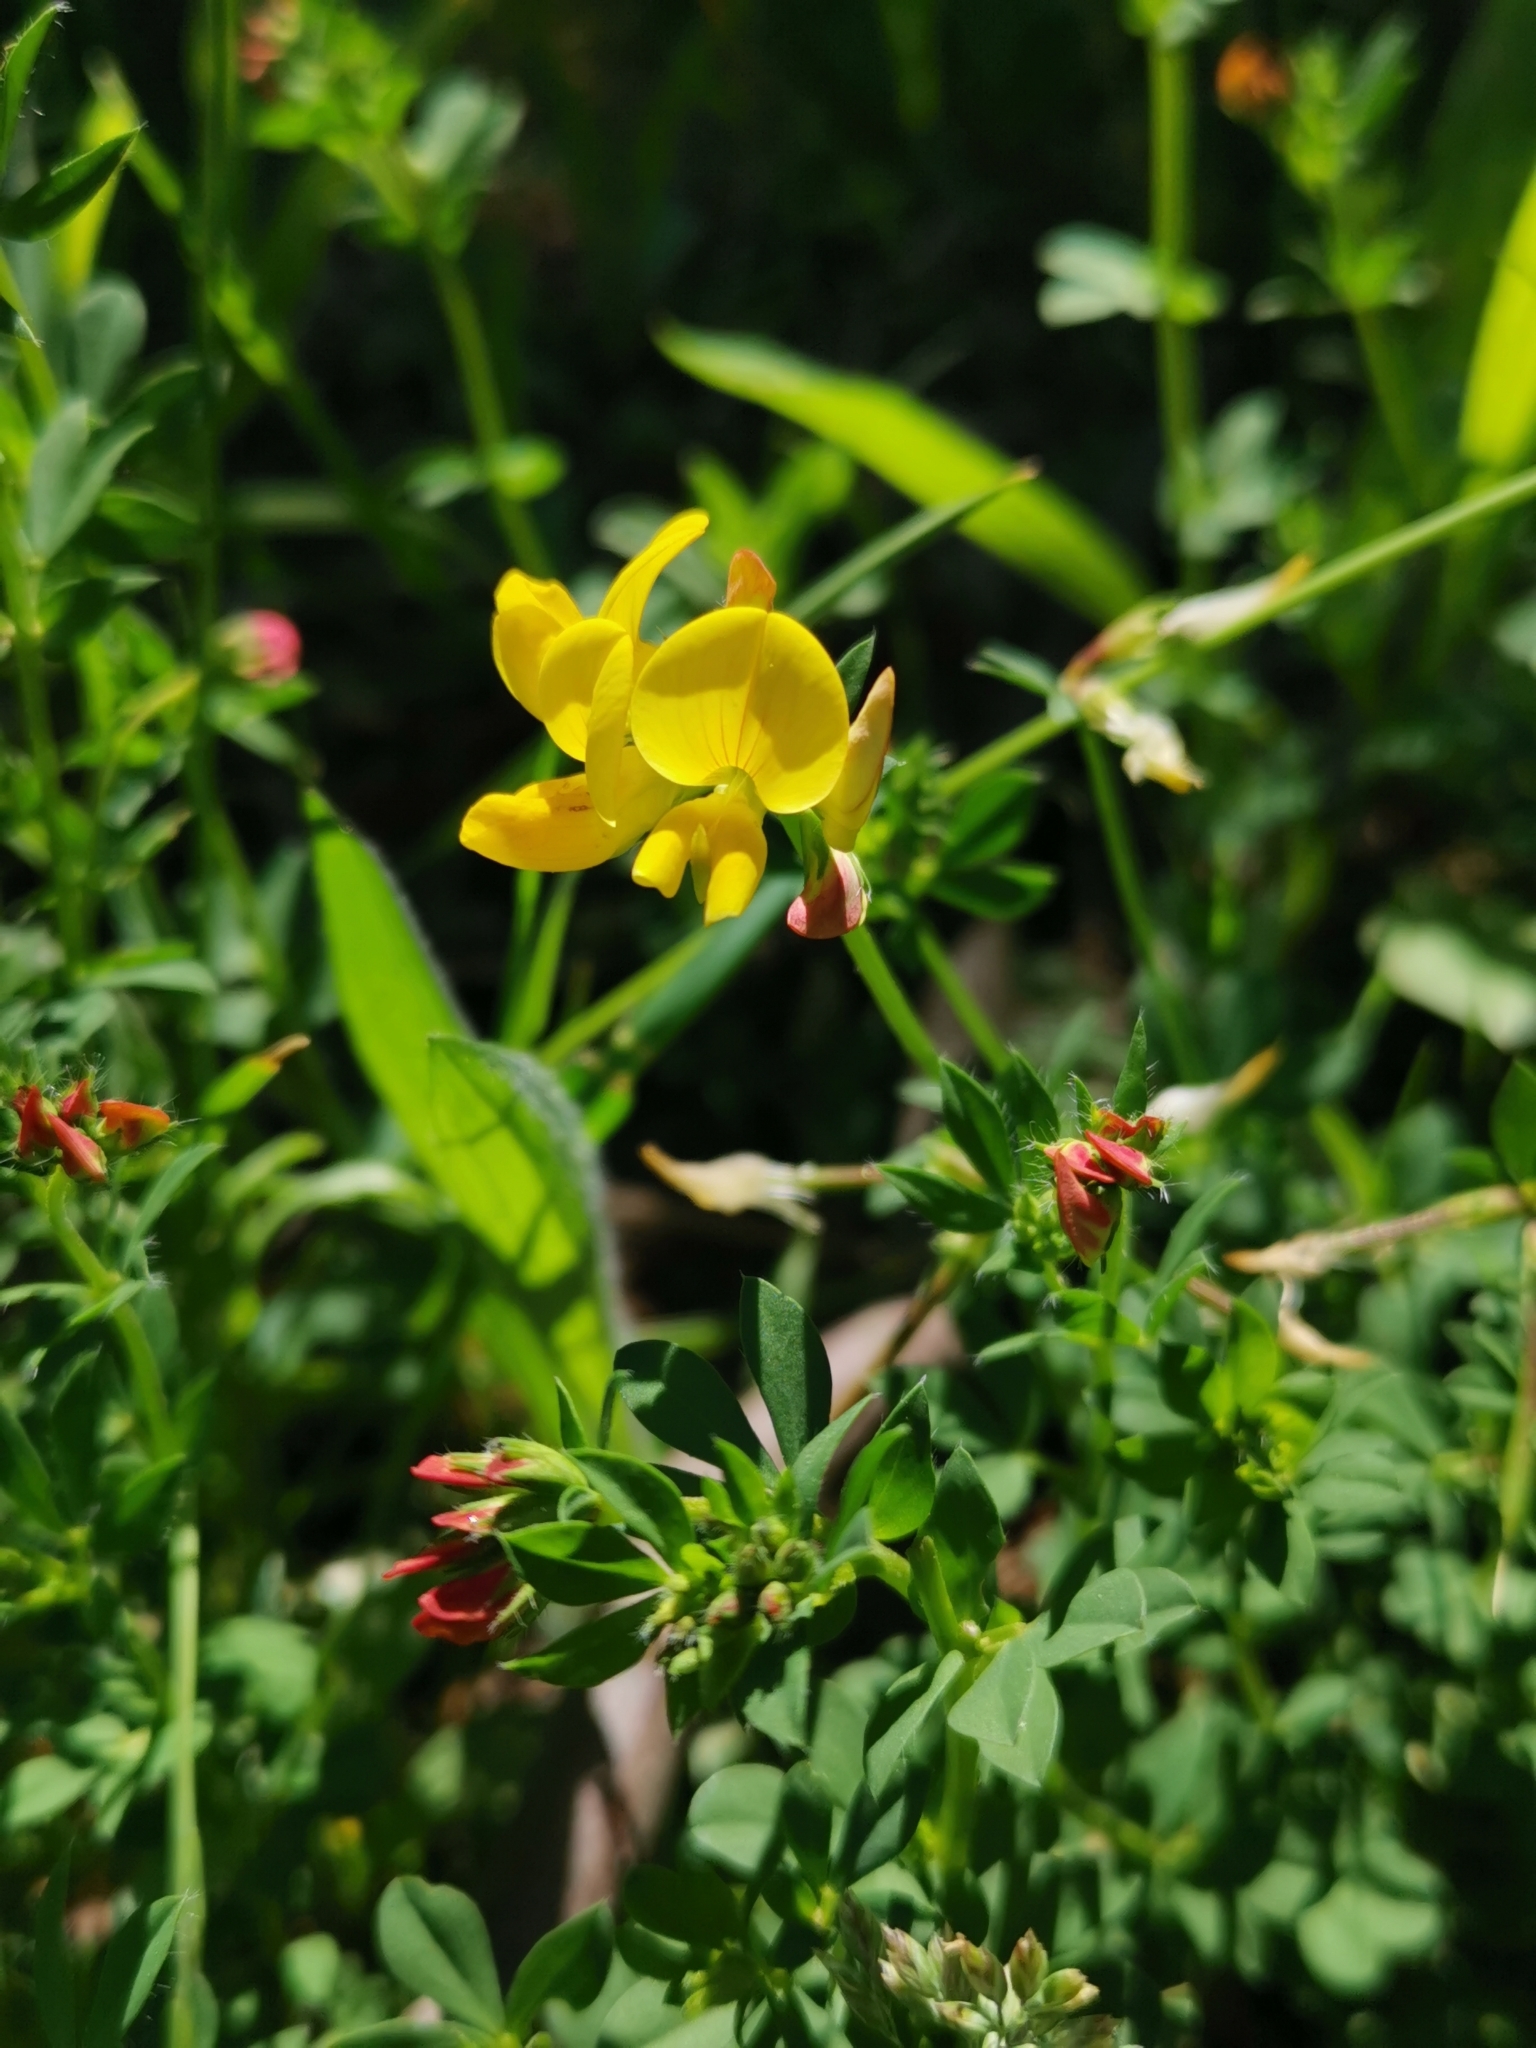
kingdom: Plantae
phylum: Tracheophyta
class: Magnoliopsida
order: Fabales
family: Fabaceae
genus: Lotus
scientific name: Lotus corniculatus
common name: Common bird's-foot-trefoil
